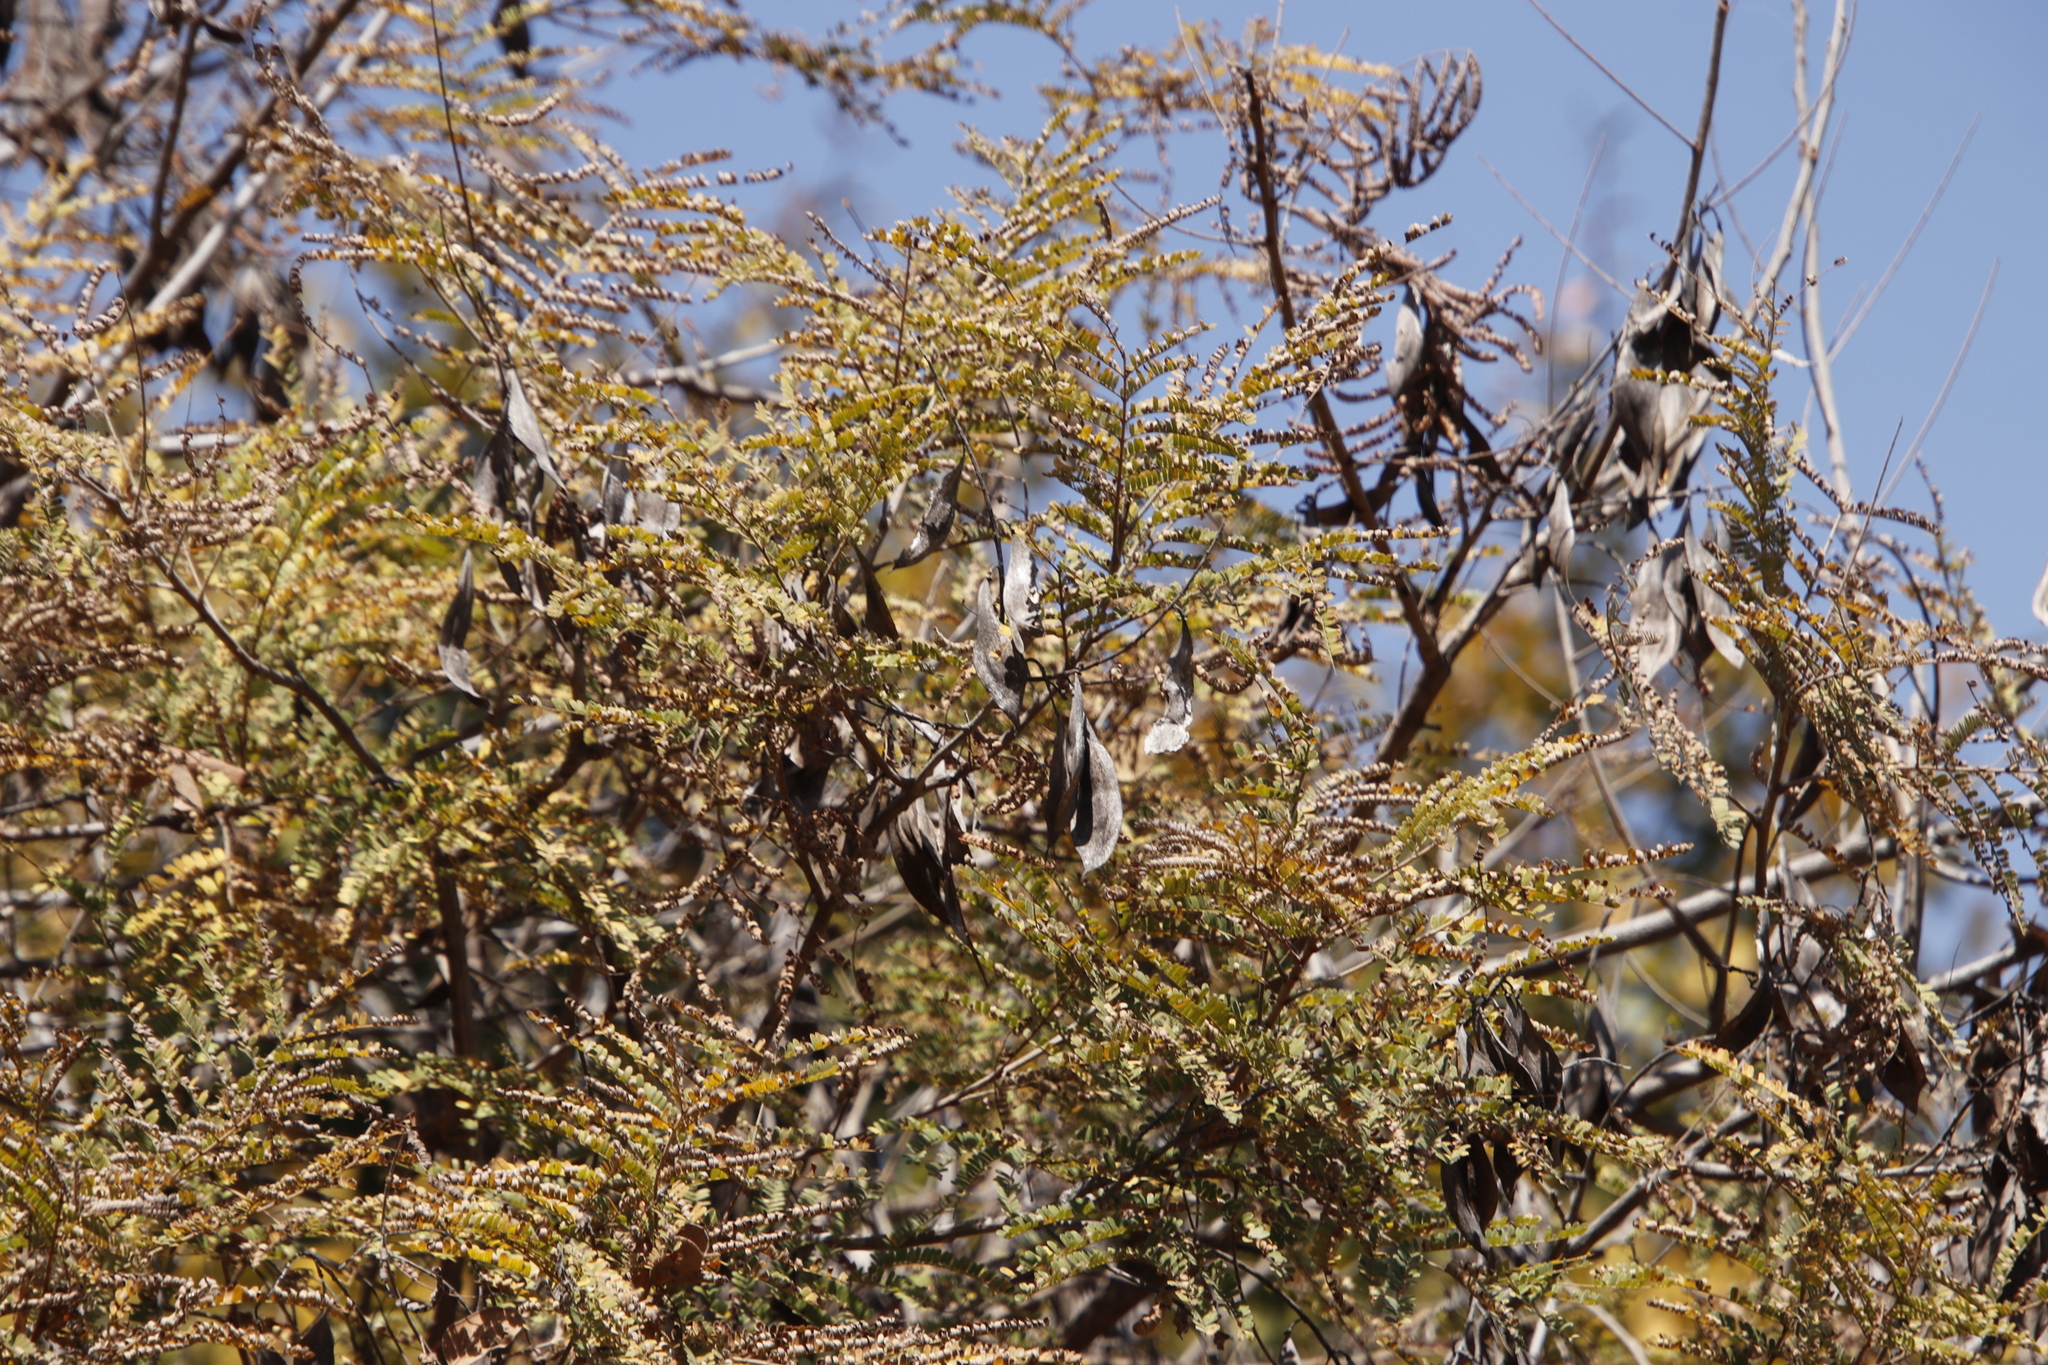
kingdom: Plantae
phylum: Tracheophyta
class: Magnoliopsida
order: Fabales
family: Fabaceae
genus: Peltophorum
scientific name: Peltophorum africanum
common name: African black wattle
